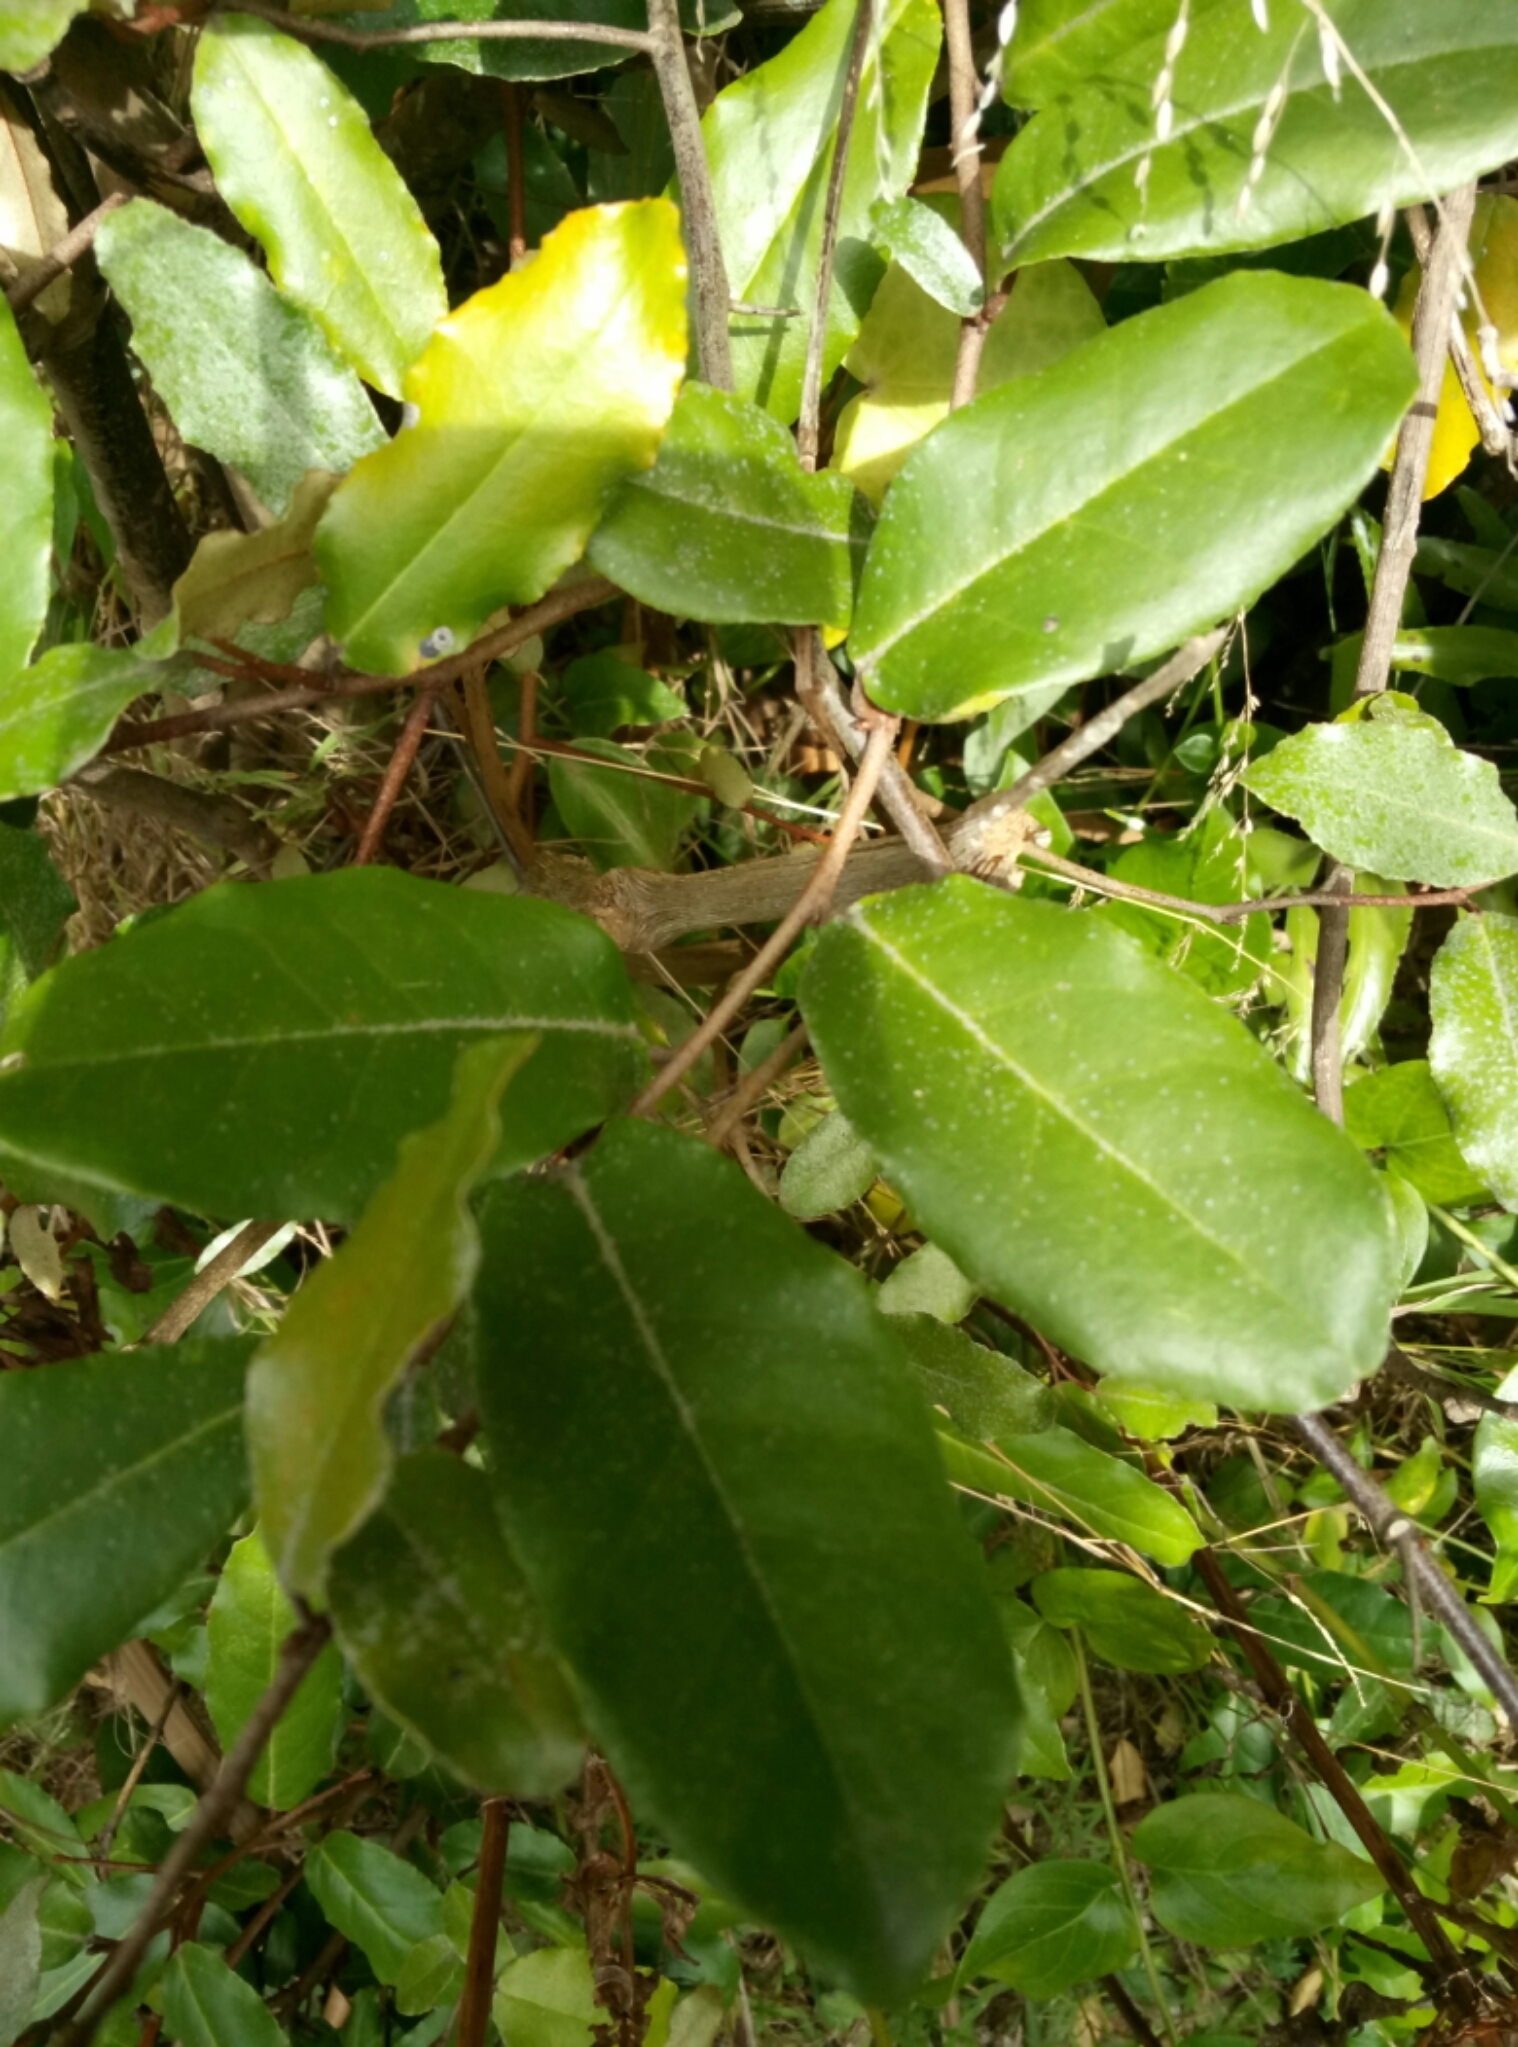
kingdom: Plantae
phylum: Tracheophyta
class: Magnoliopsida
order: Rosales
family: Elaeagnaceae
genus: Elaeagnus
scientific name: Elaeagnus pungens
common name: Spiny oleaster
